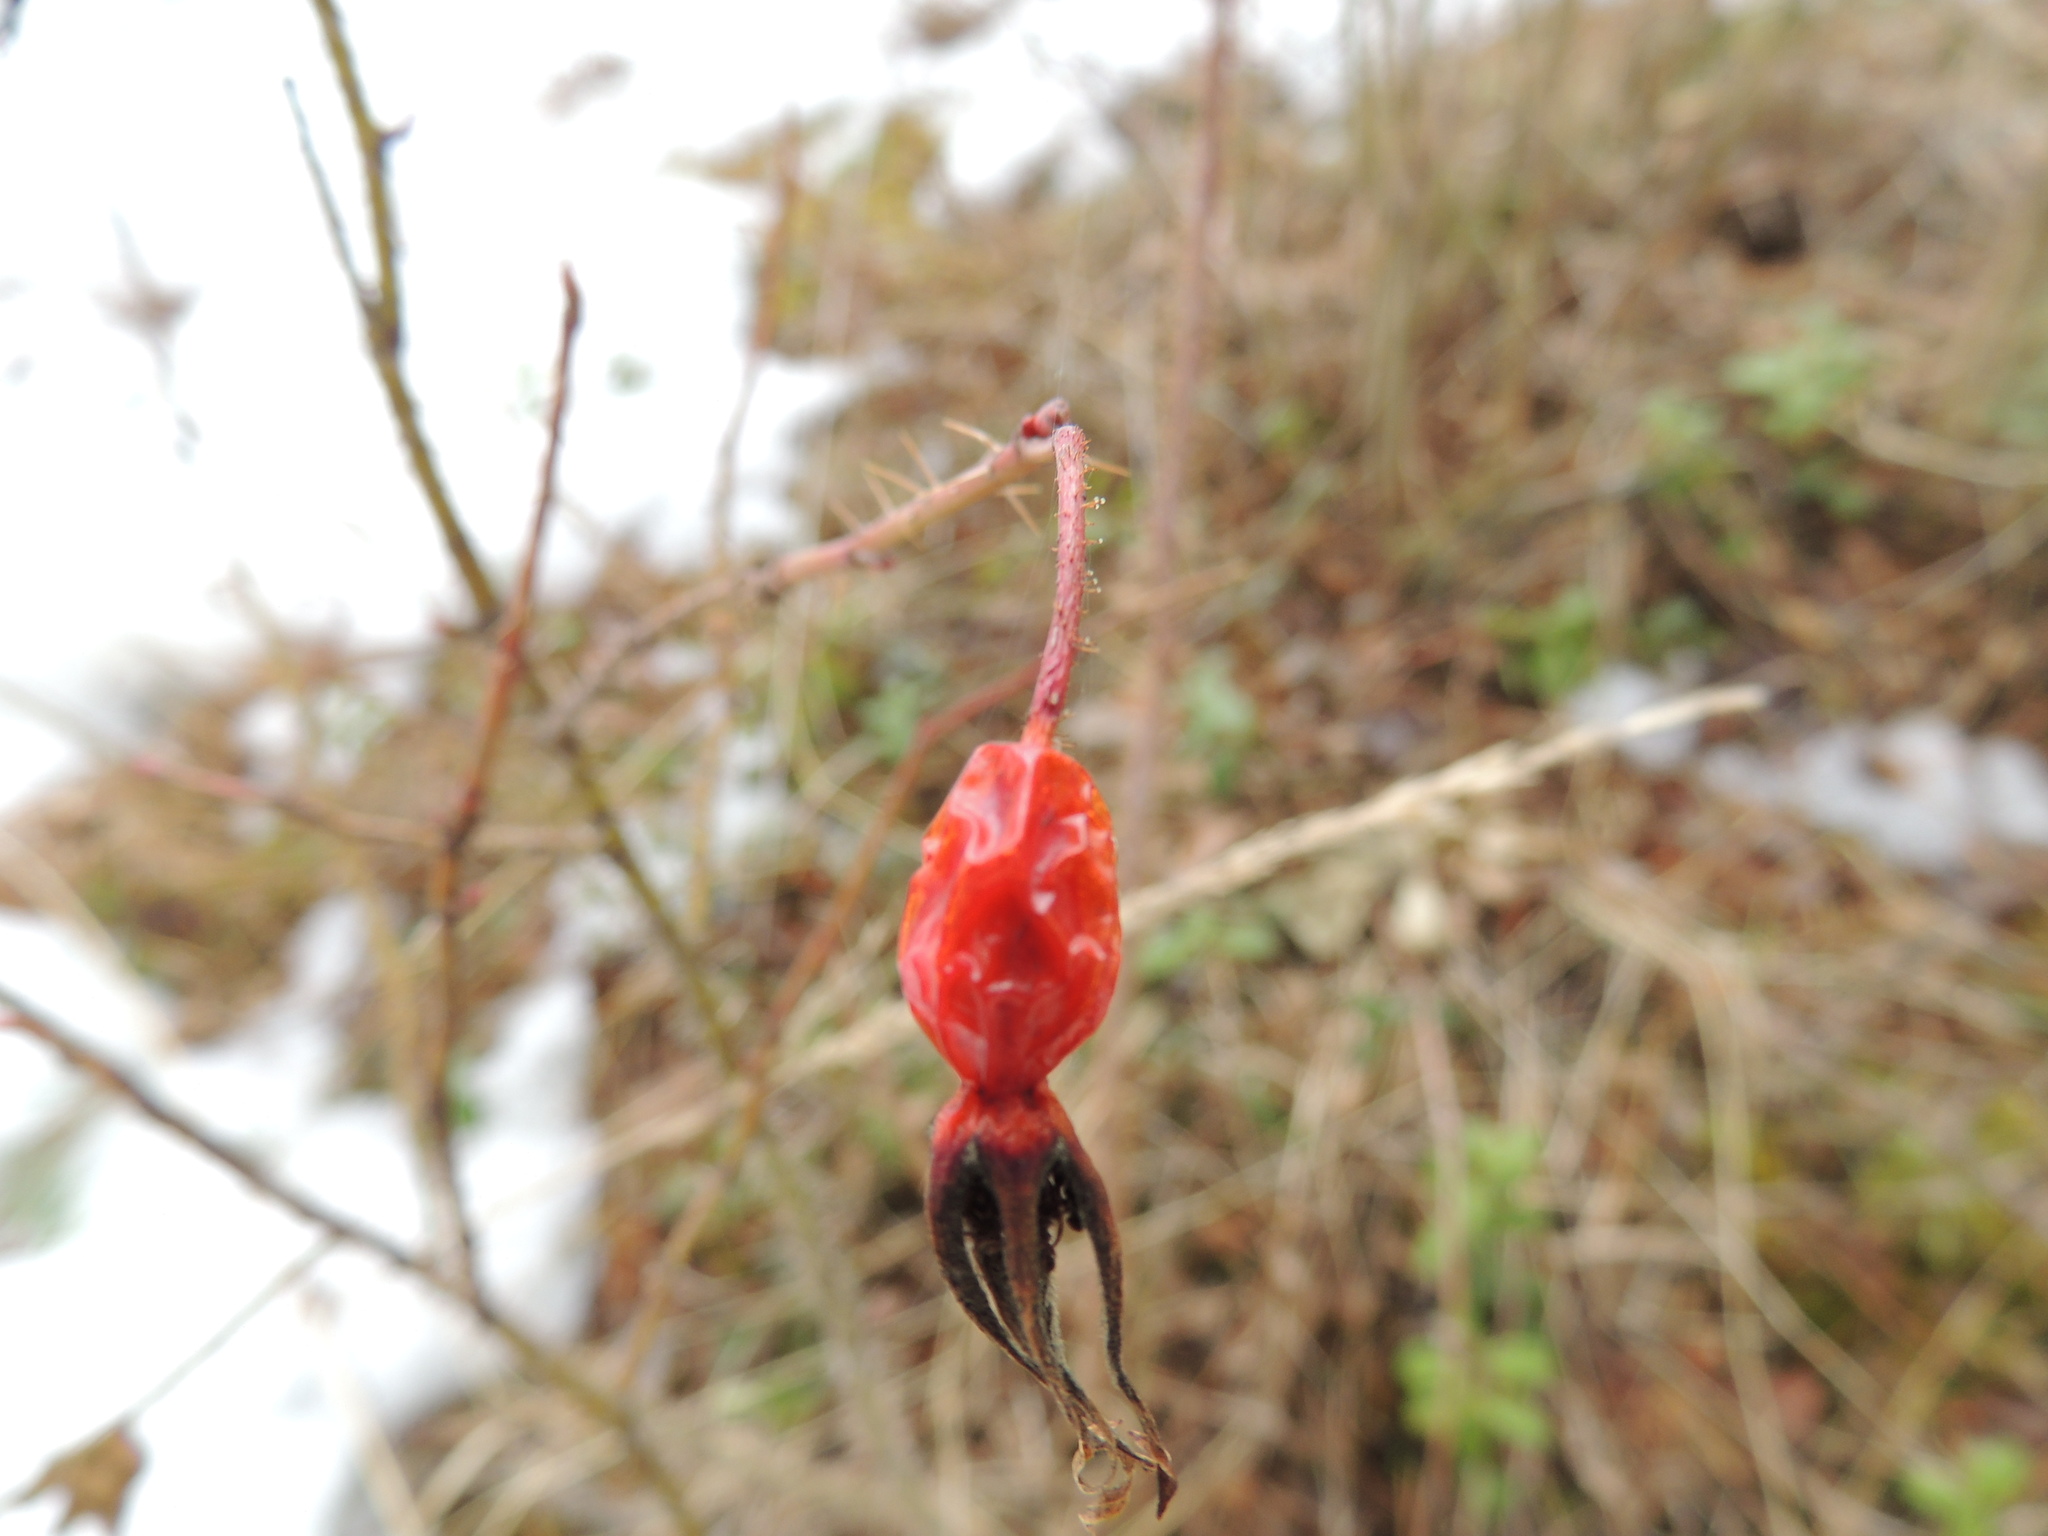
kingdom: Plantae
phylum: Tracheophyta
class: Magnoliopsida
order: Rosales
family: Rosaceae
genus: Rosa
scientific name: Rosa acicularis
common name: Prickly rose
